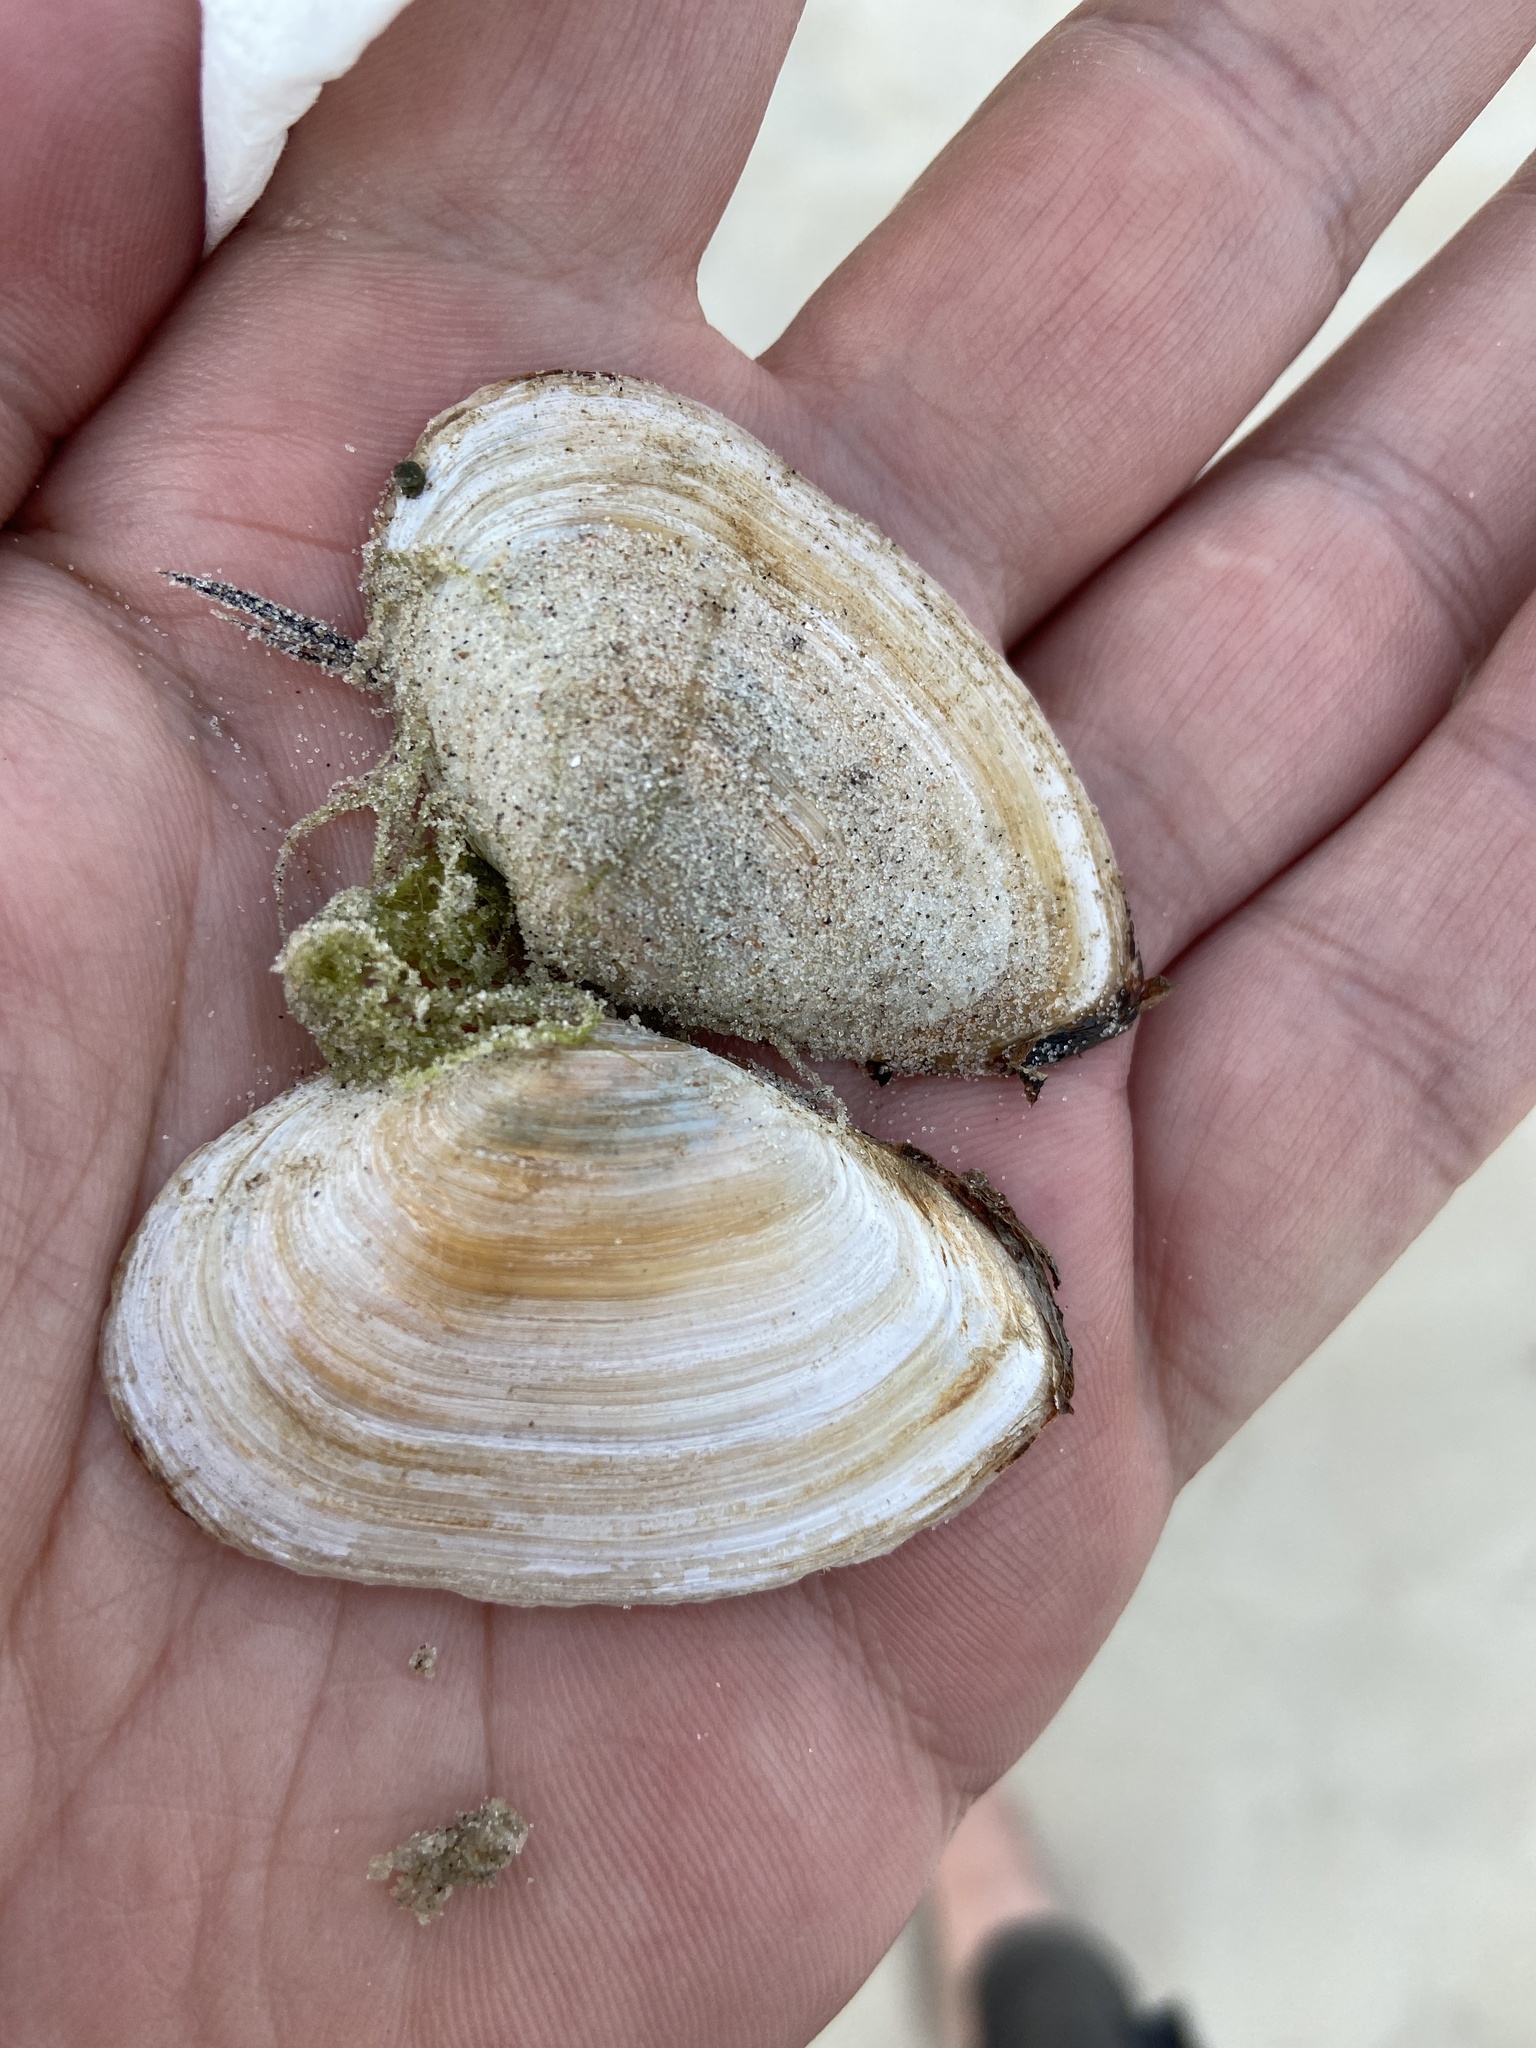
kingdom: Animalia
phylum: Mollusca
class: Bivalvia
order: Myida
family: Myidae
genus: Mya
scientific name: Mya arenaria
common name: Soft-shelled clam
